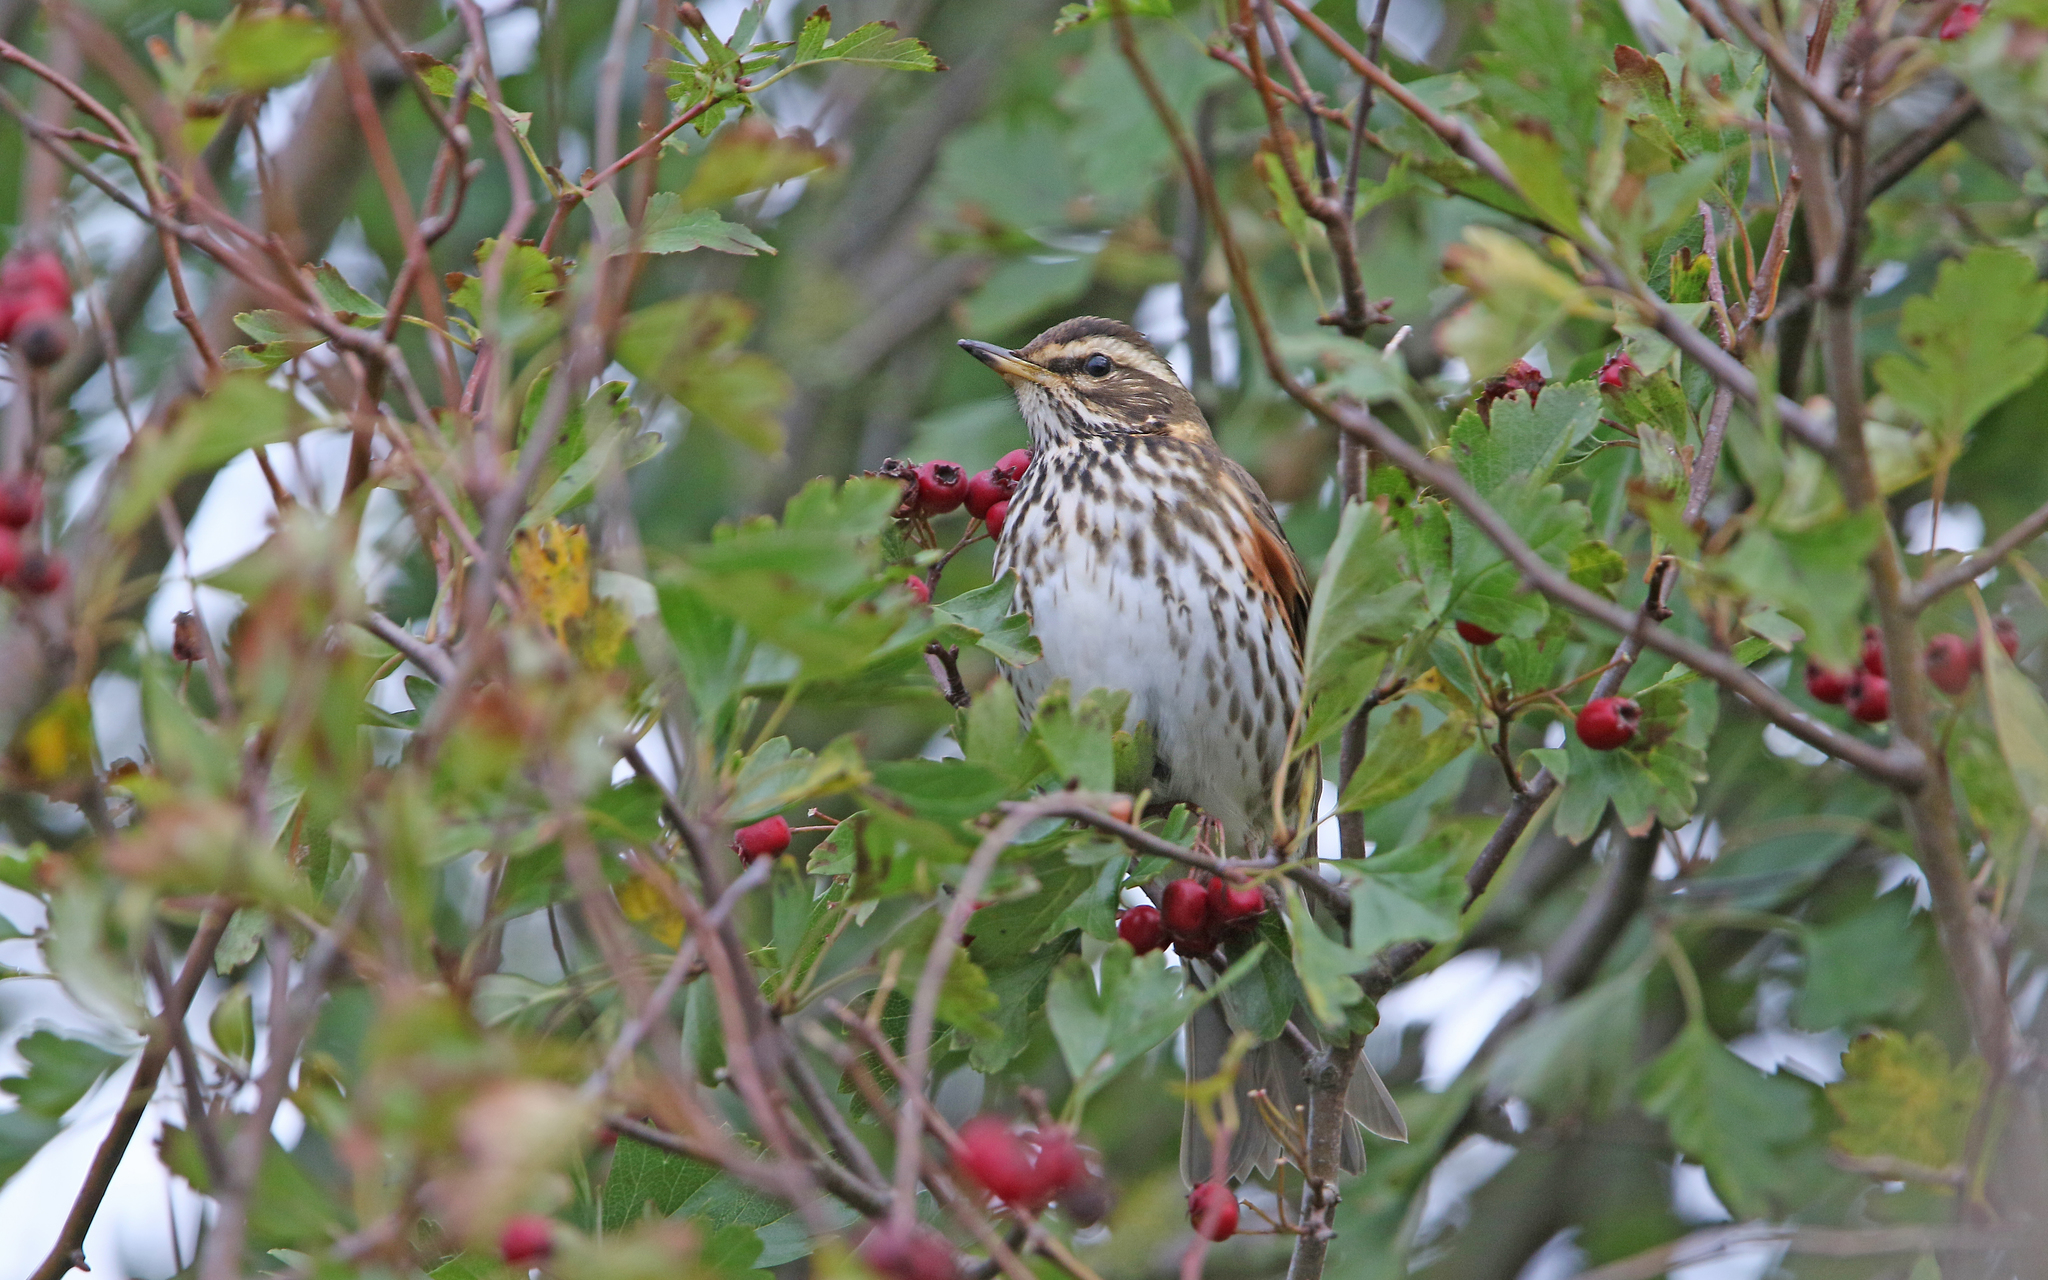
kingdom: Animalia
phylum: Chordata
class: Aves
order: Passeriformes
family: Turdidae
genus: Turdus
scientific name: Turdus iliacus
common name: Redwing
